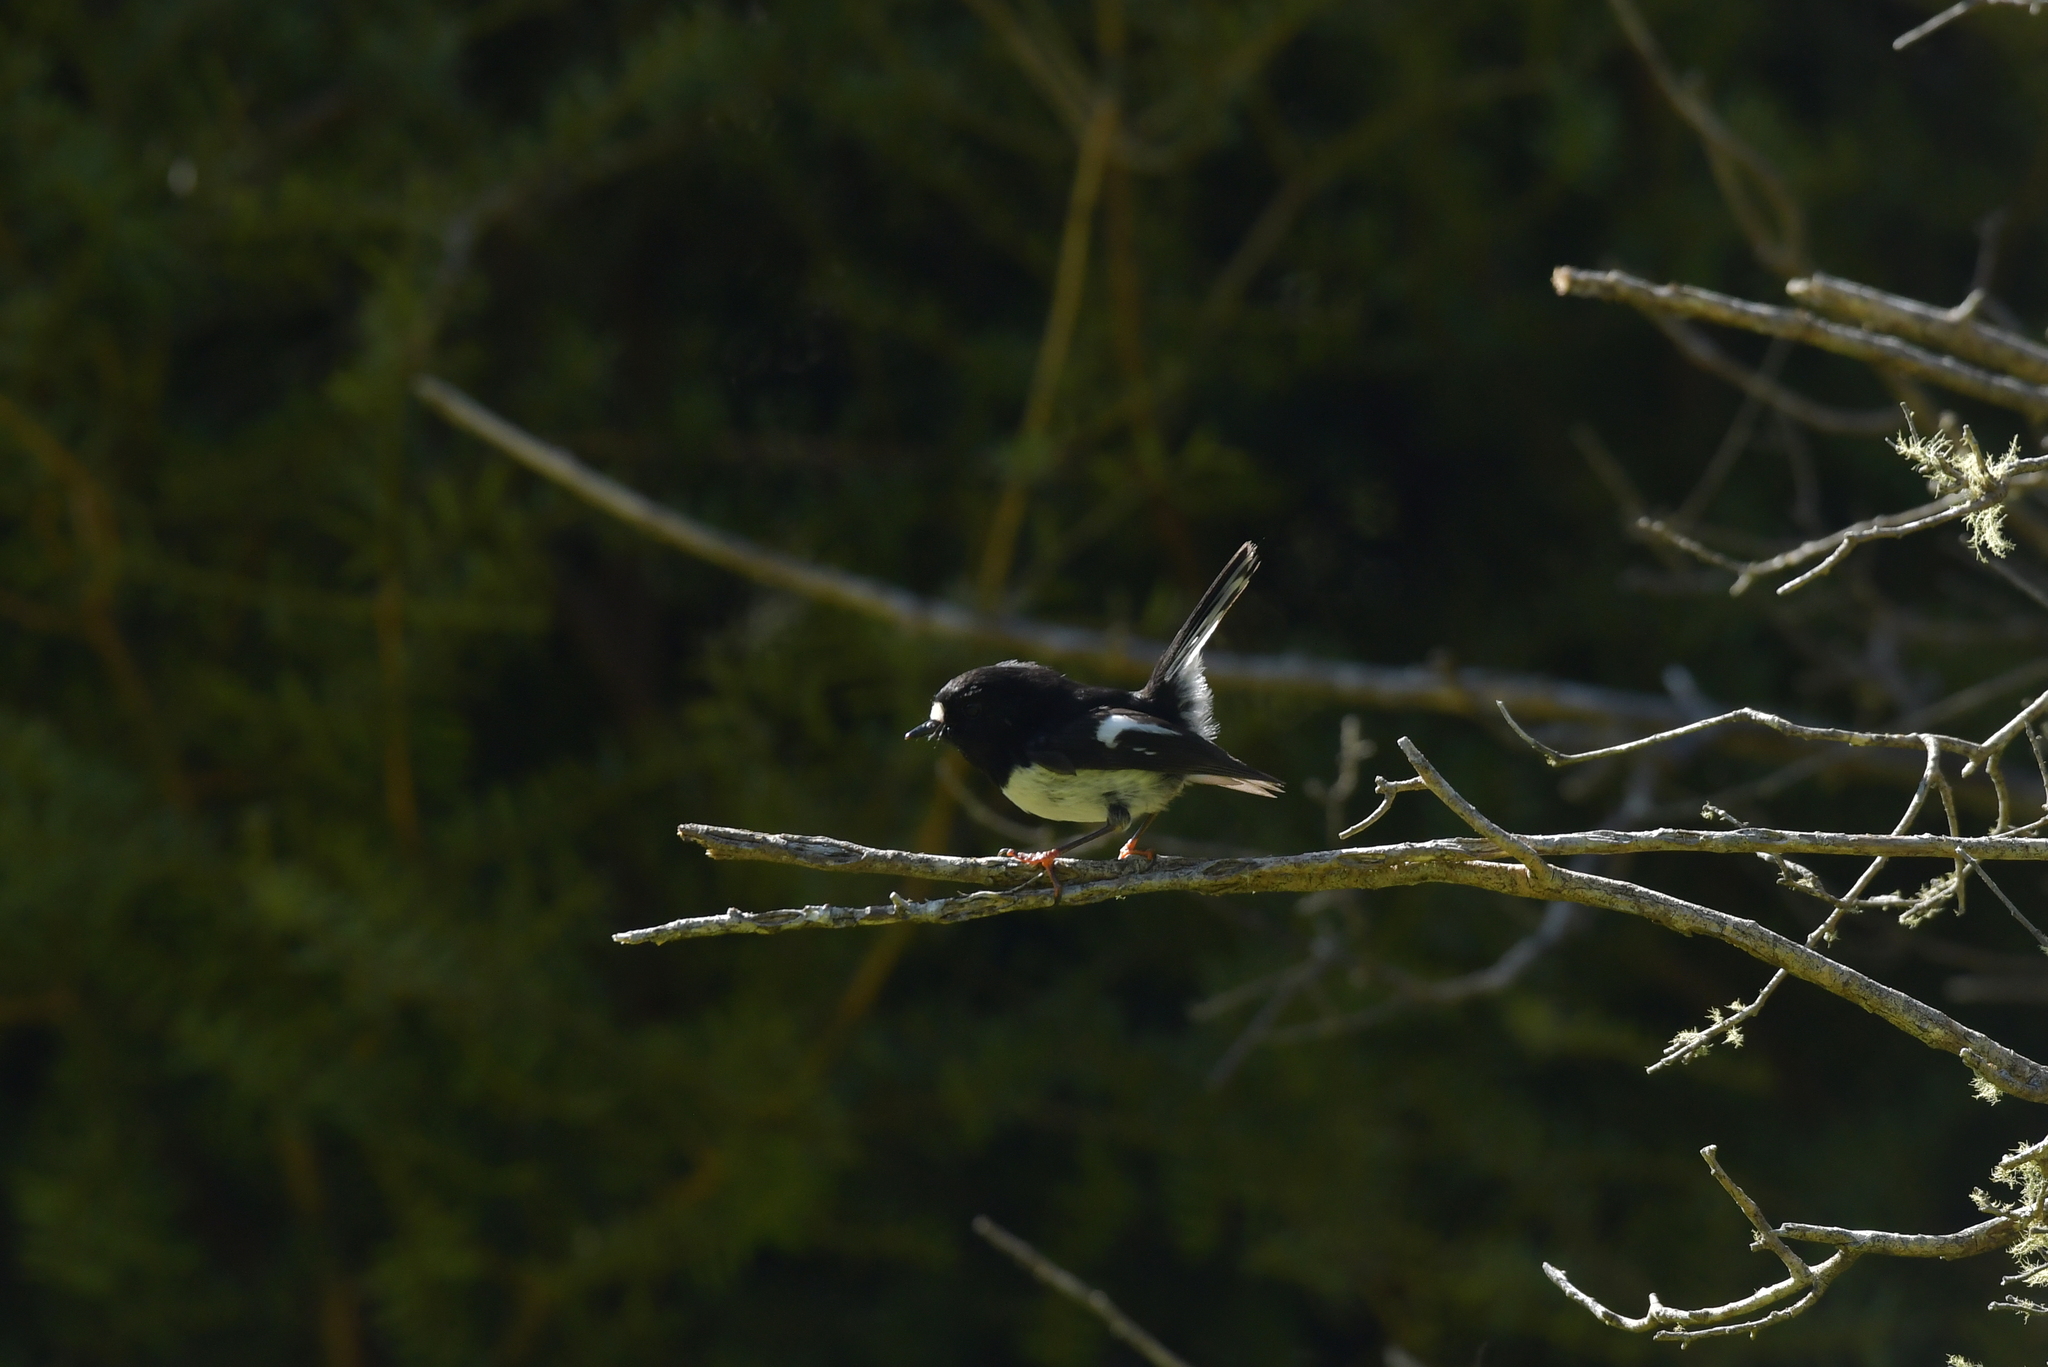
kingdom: Animalia
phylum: Chordata
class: Aves
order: Passeriformes
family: Petroicidae
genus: Petroica
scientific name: Petroica macrocephala
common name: Tomtit
